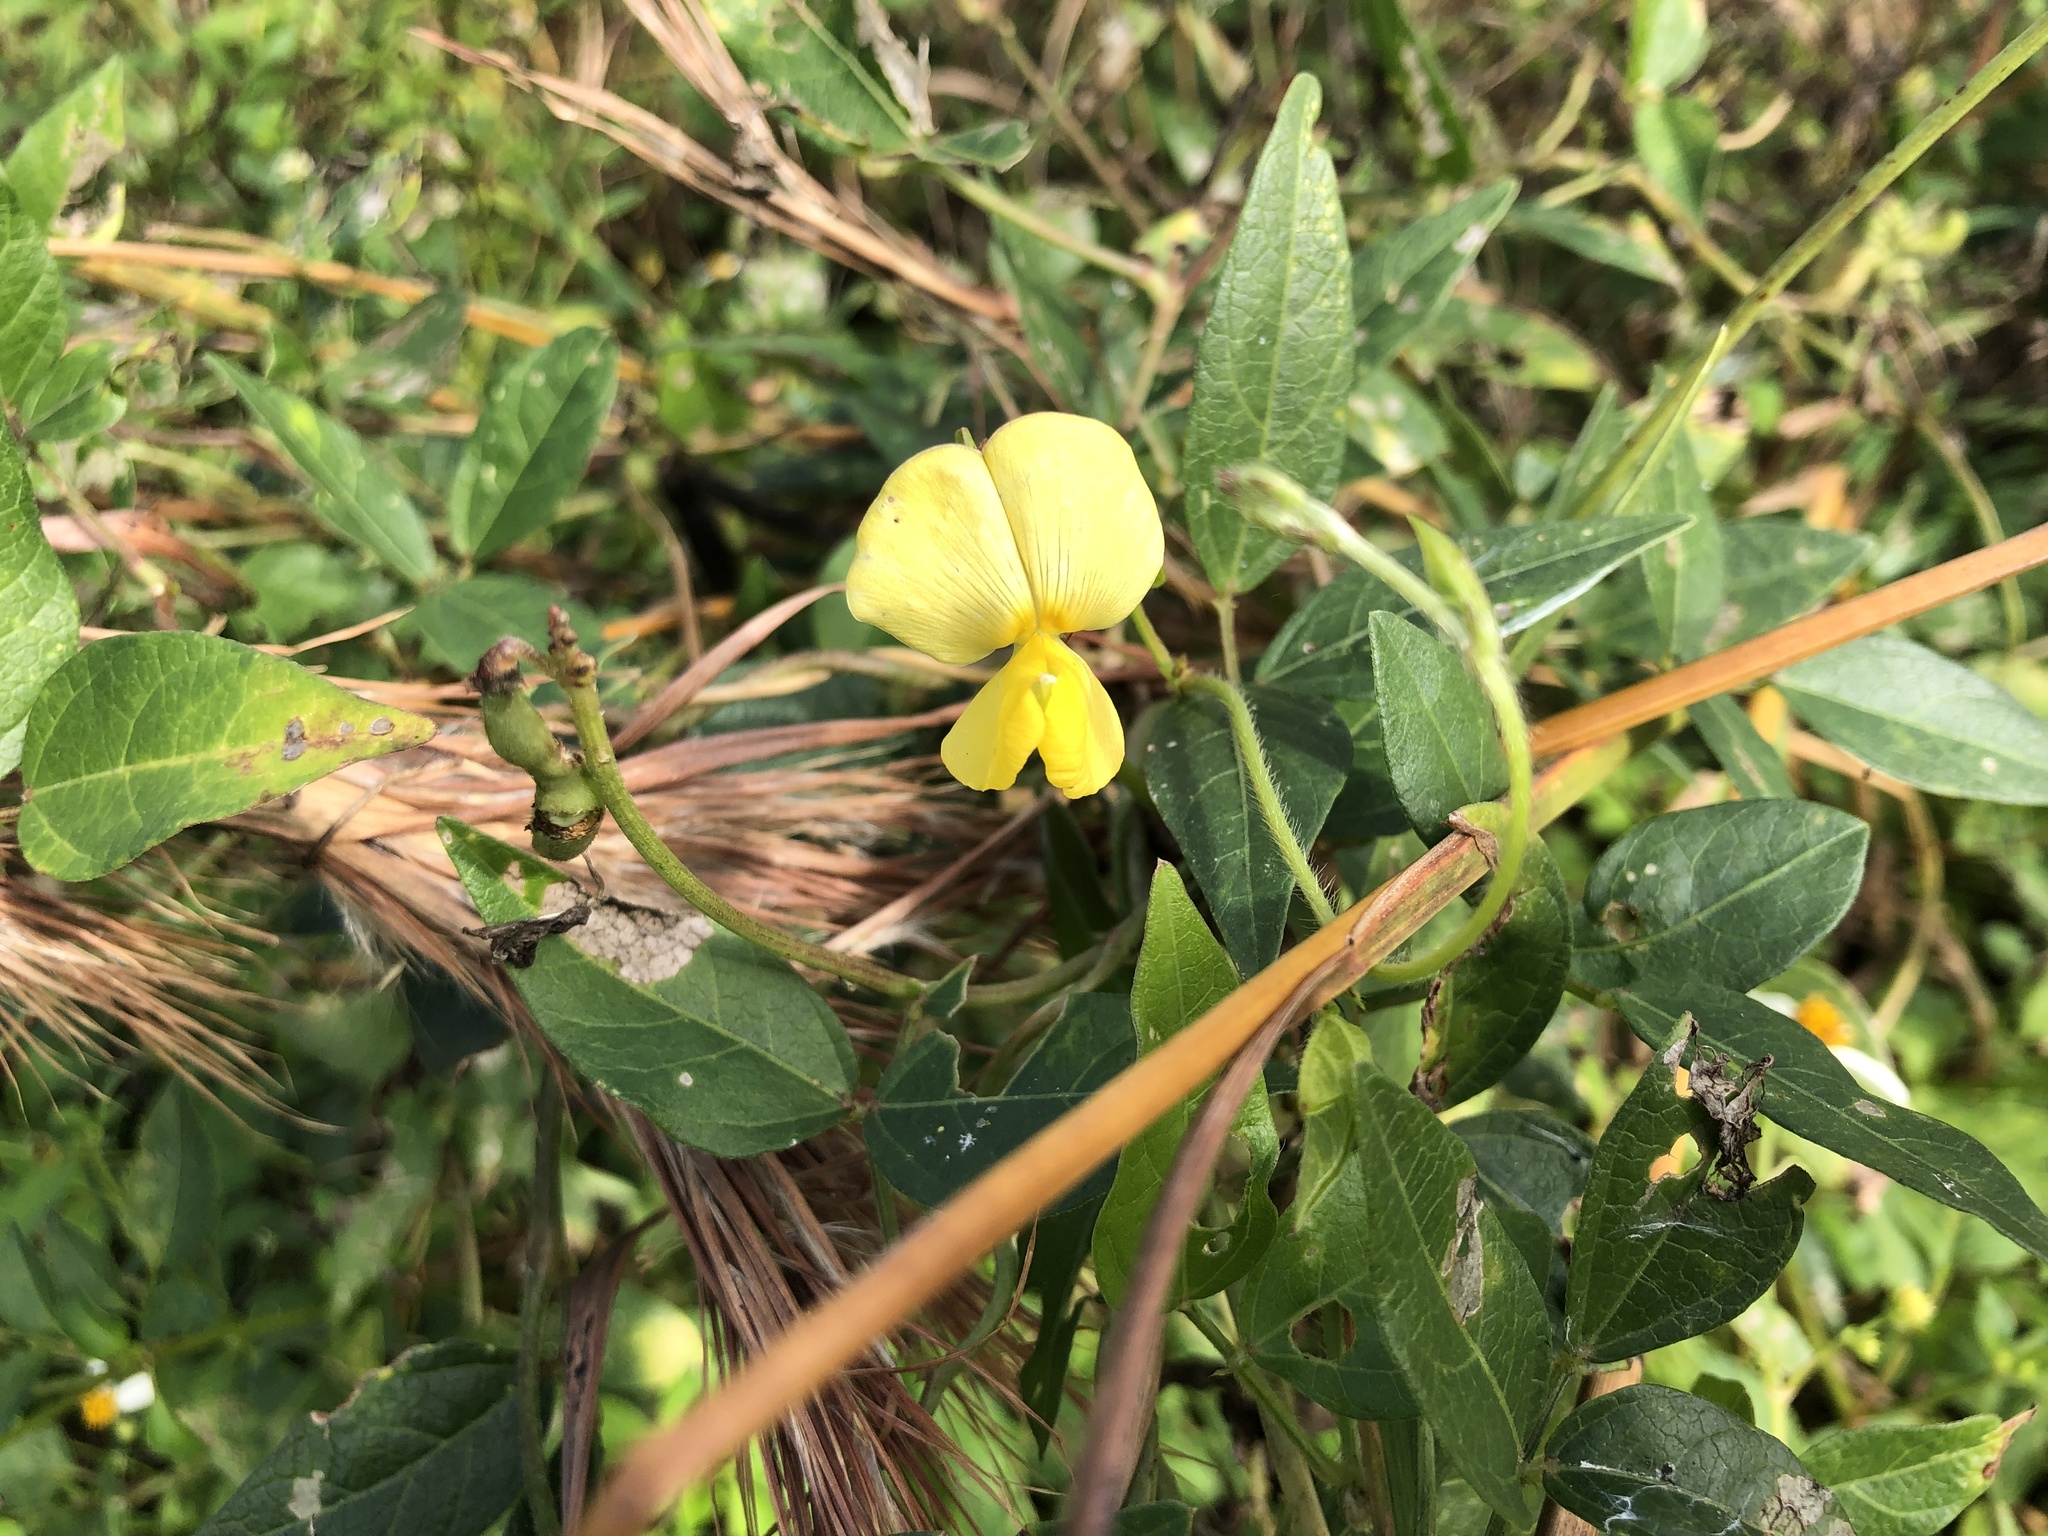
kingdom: Plantae
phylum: Tracheophyta
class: Magnoliopsida
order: Fabales
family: Fabaceae
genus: Vigna
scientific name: Vigna luteola
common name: Hairypod cowpea
